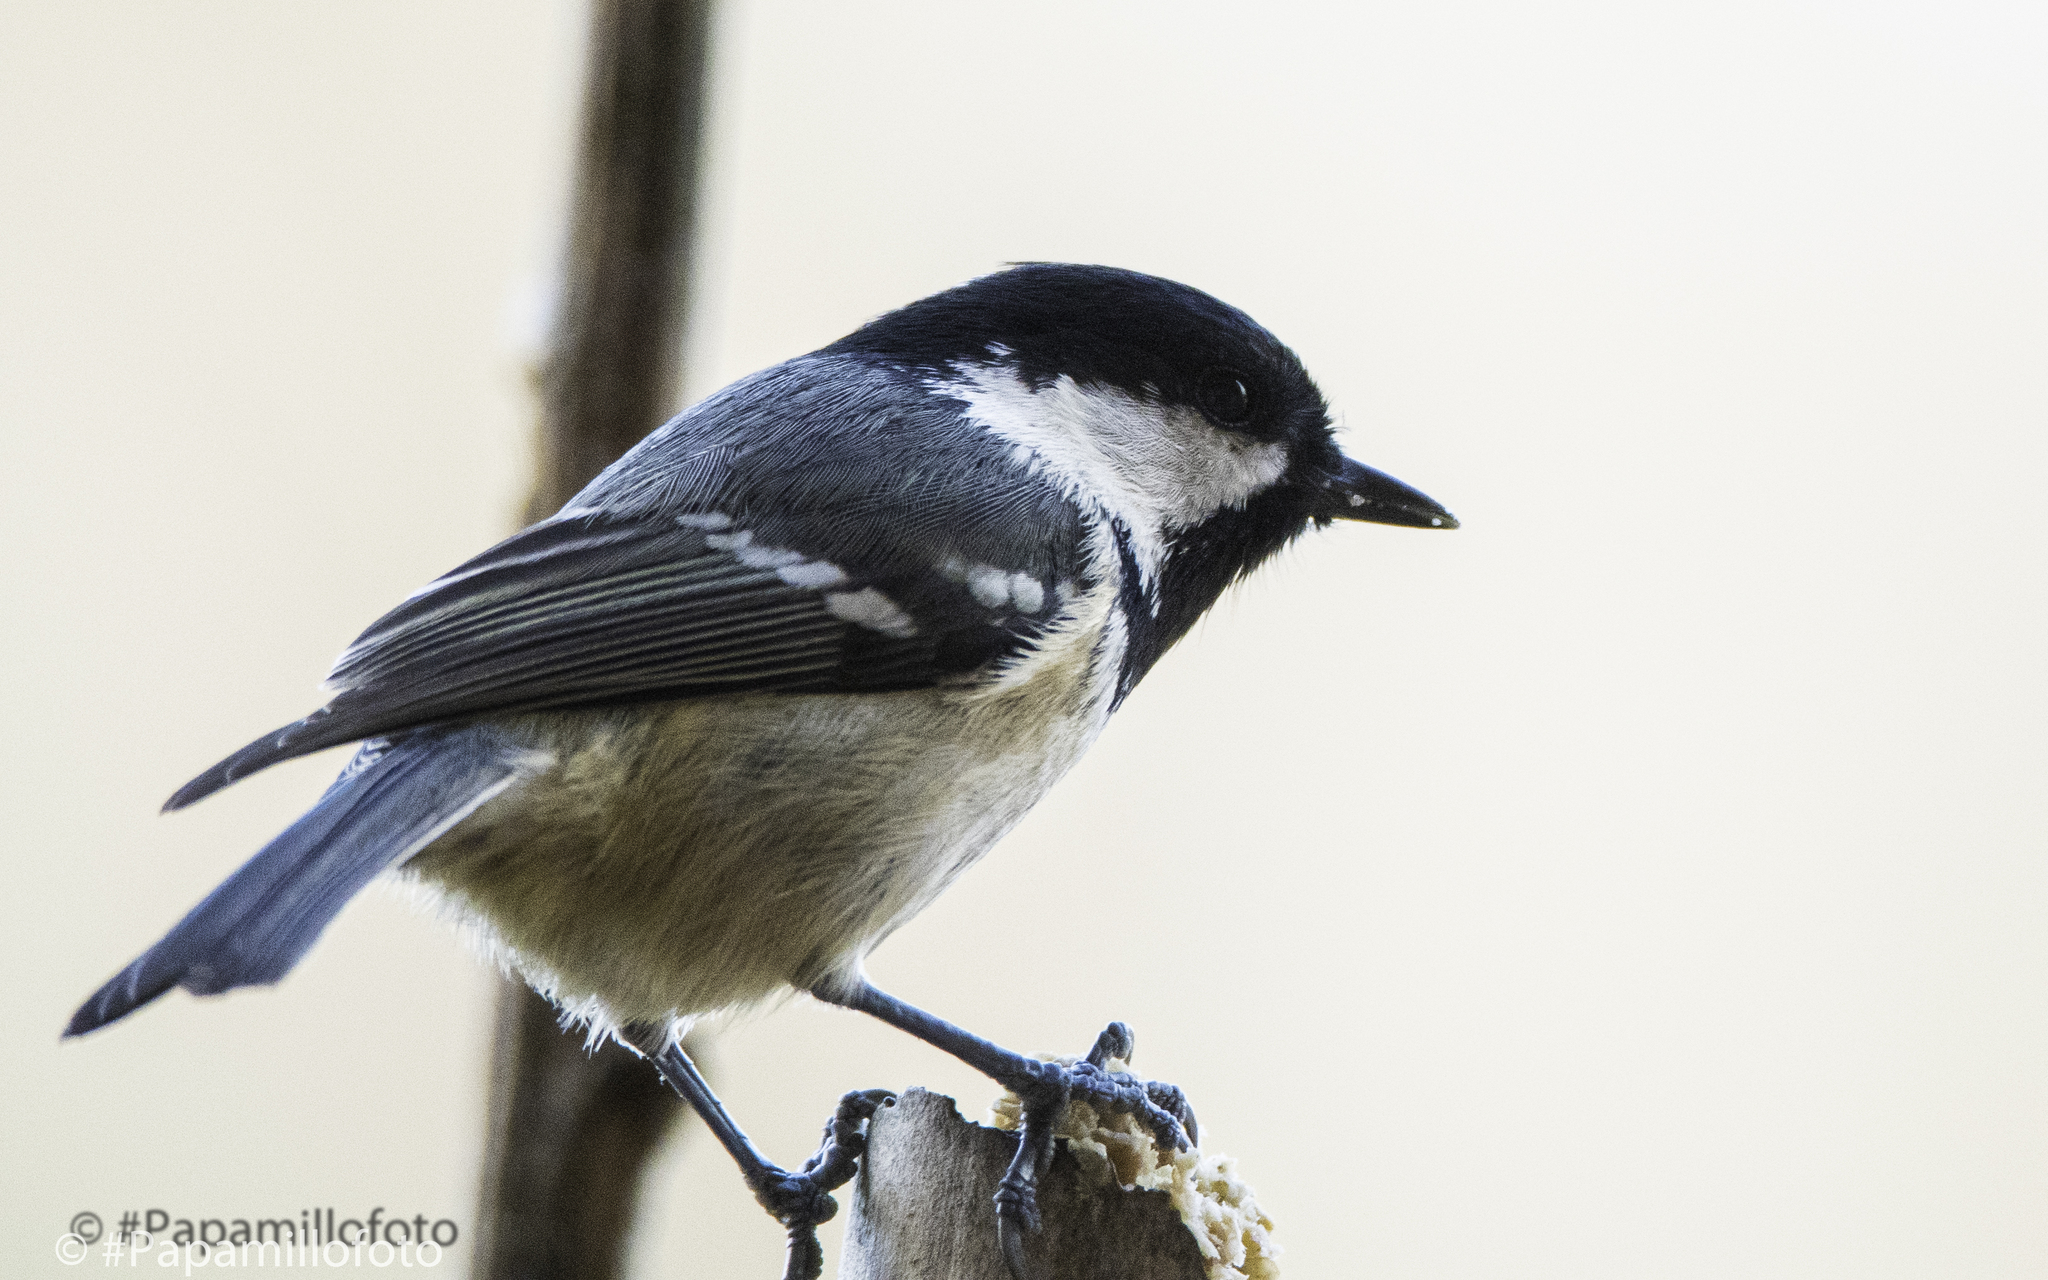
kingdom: Animalia
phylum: Chordata
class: Aves
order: Passeriformes
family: Paridae
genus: Periparus
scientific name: Periparus ater
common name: Coal tit
